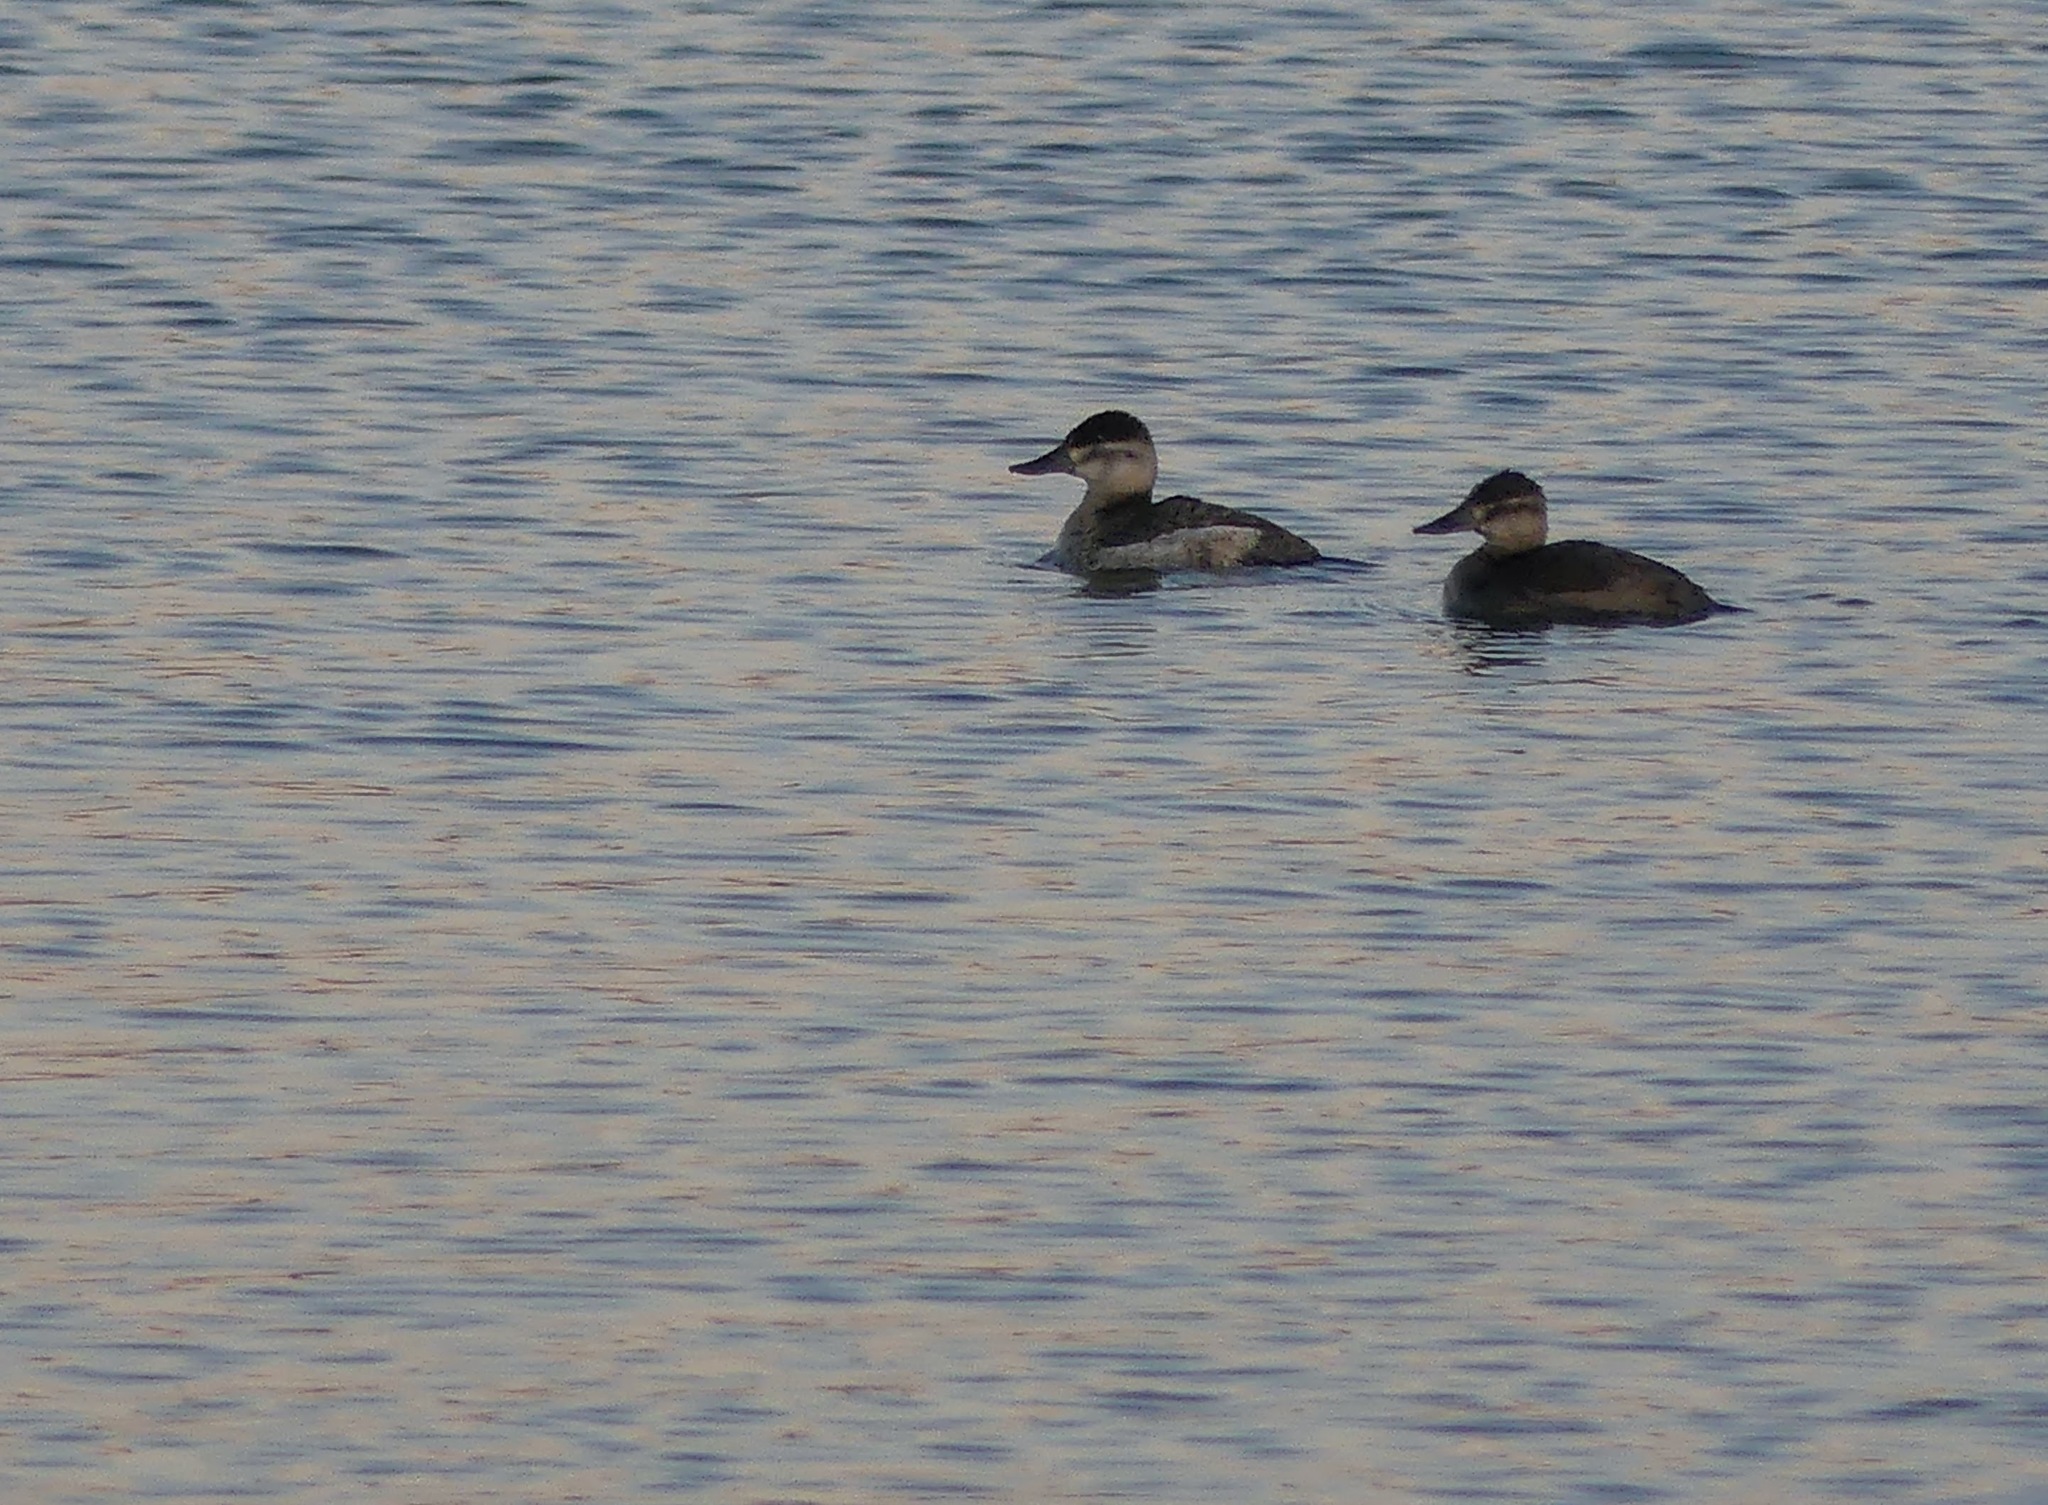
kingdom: Animalia
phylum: Chordata
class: Aves
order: Anseriformes
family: Anatidae
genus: Oxyura
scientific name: Oxyura jamaicensis
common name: Ruddy duck
